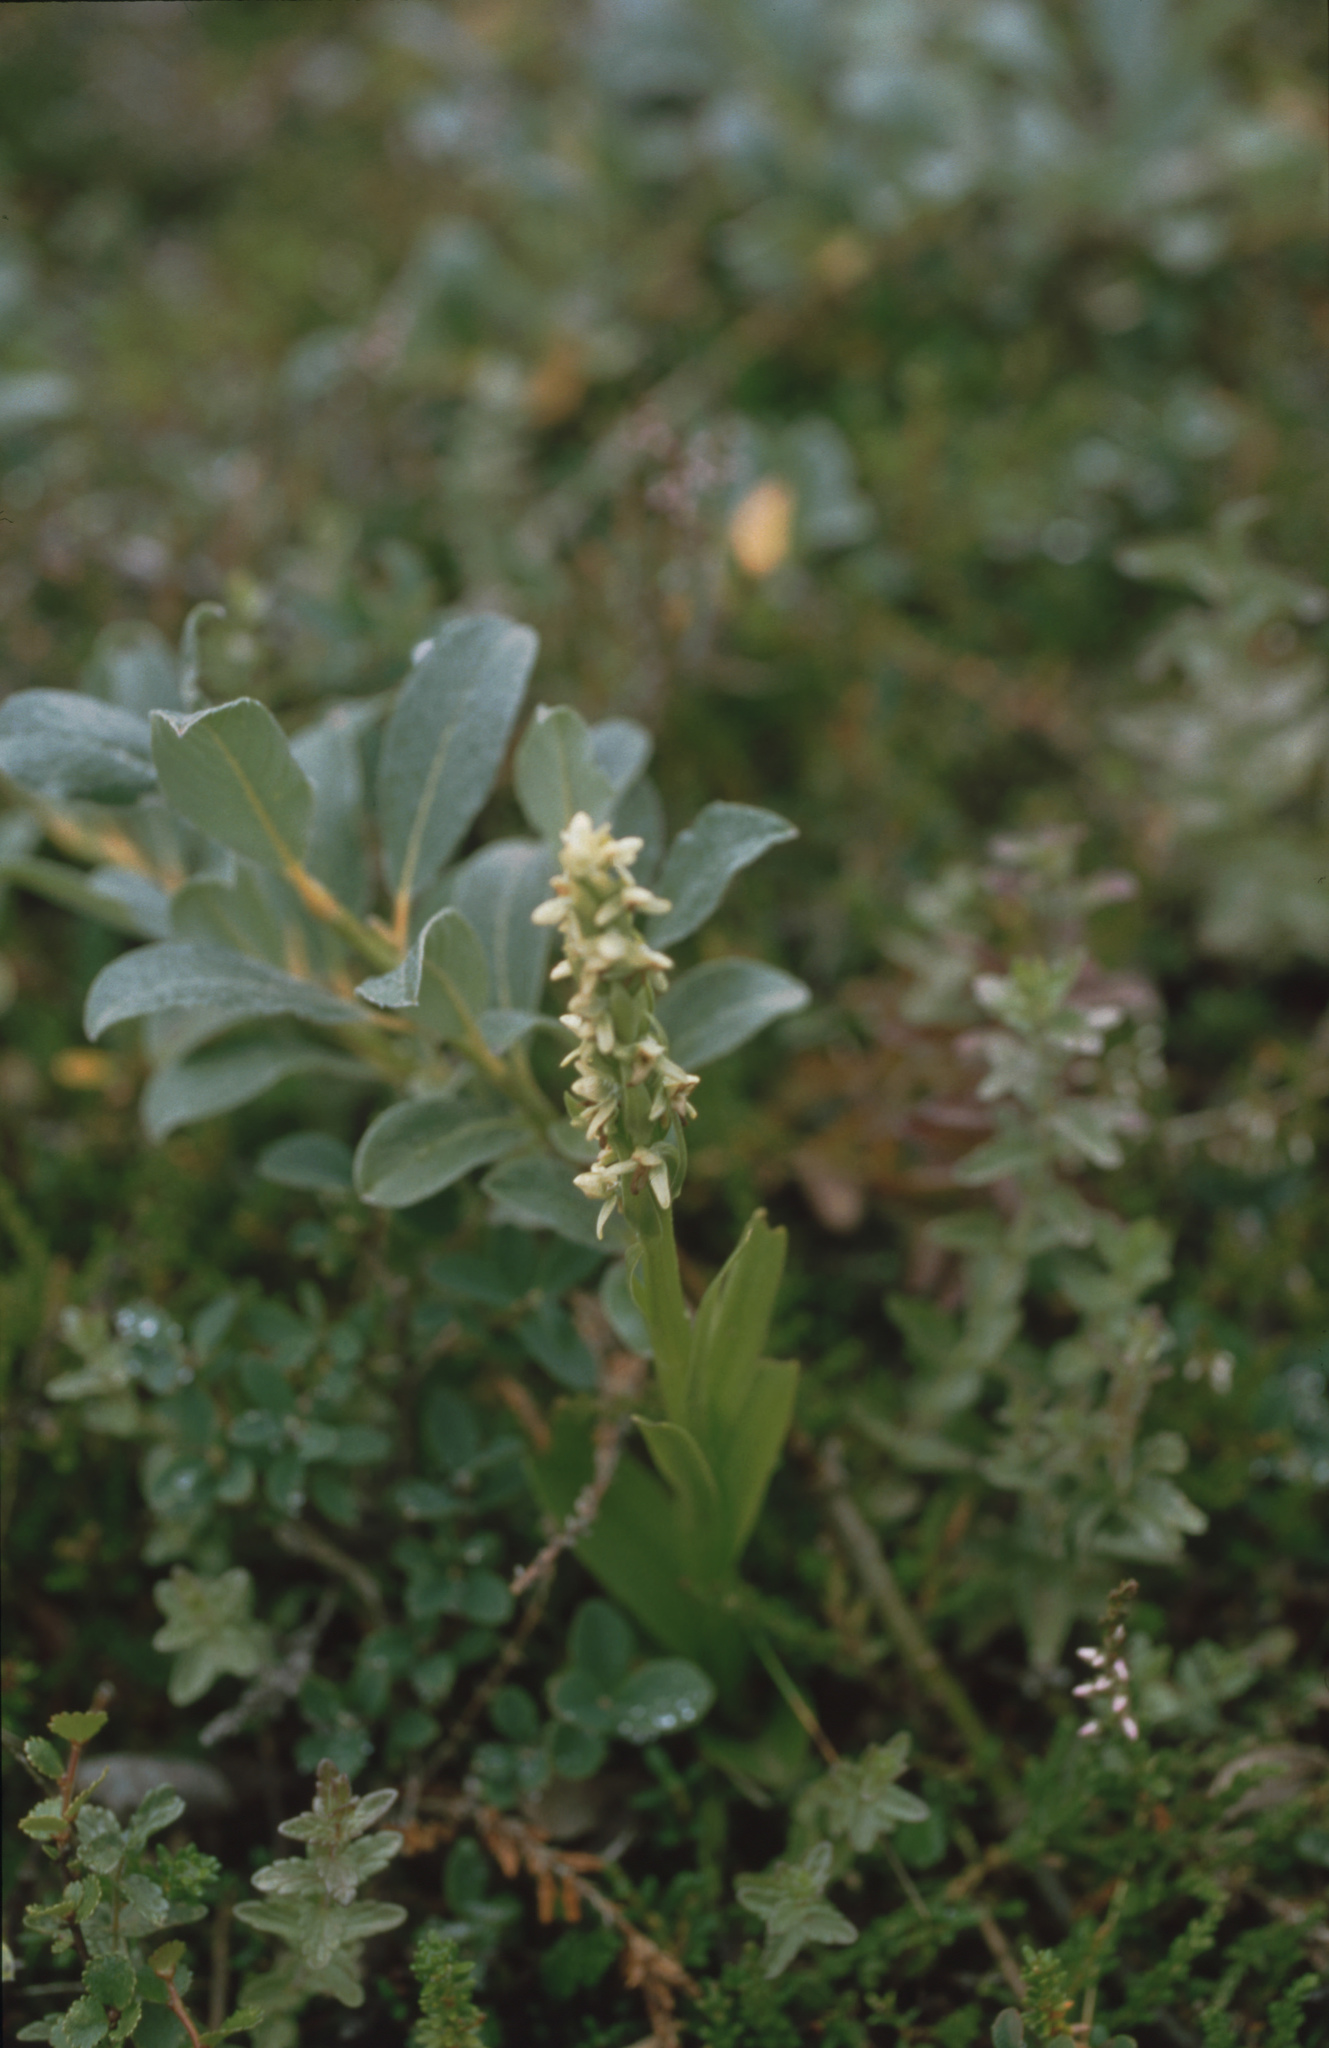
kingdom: Plantae
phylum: Tracheophyta
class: Liliopsida
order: Asparagales
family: Orchidaceae
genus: Platanthera
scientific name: Platanthera hyperborea
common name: Northern green orchid
